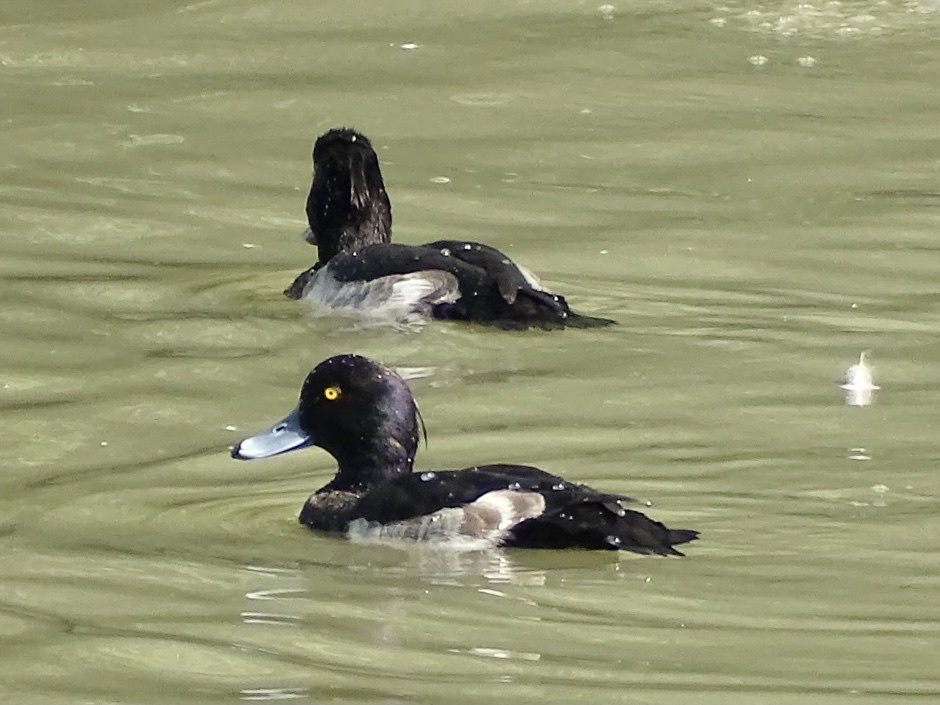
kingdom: Animalia
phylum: Chordata
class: Aves
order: Anseriformes
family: Anatidae
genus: Aythya
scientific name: Aythya fuligula
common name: Tufted duck
